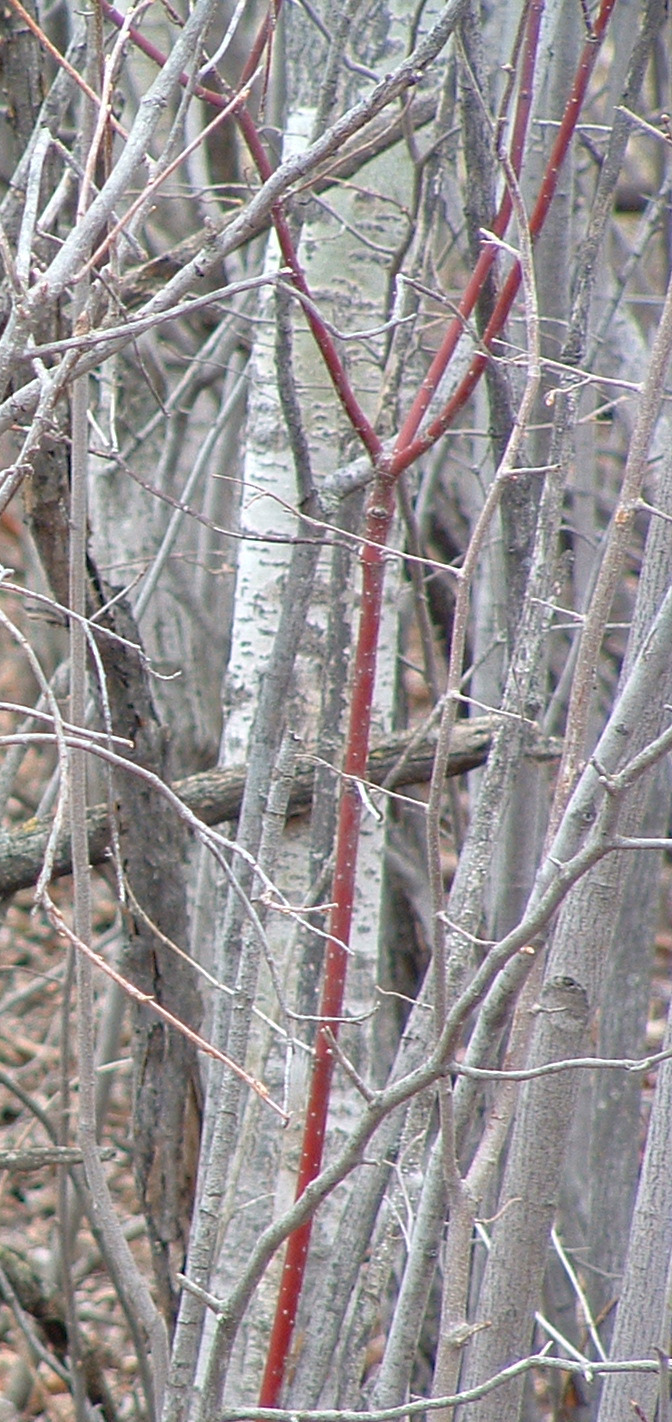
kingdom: Plantae
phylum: Tracheophyta
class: Magnoliopsida
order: Cornales
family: Cornaceae
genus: Cornus
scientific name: Cornus sericea
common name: Red-osier dogwood
